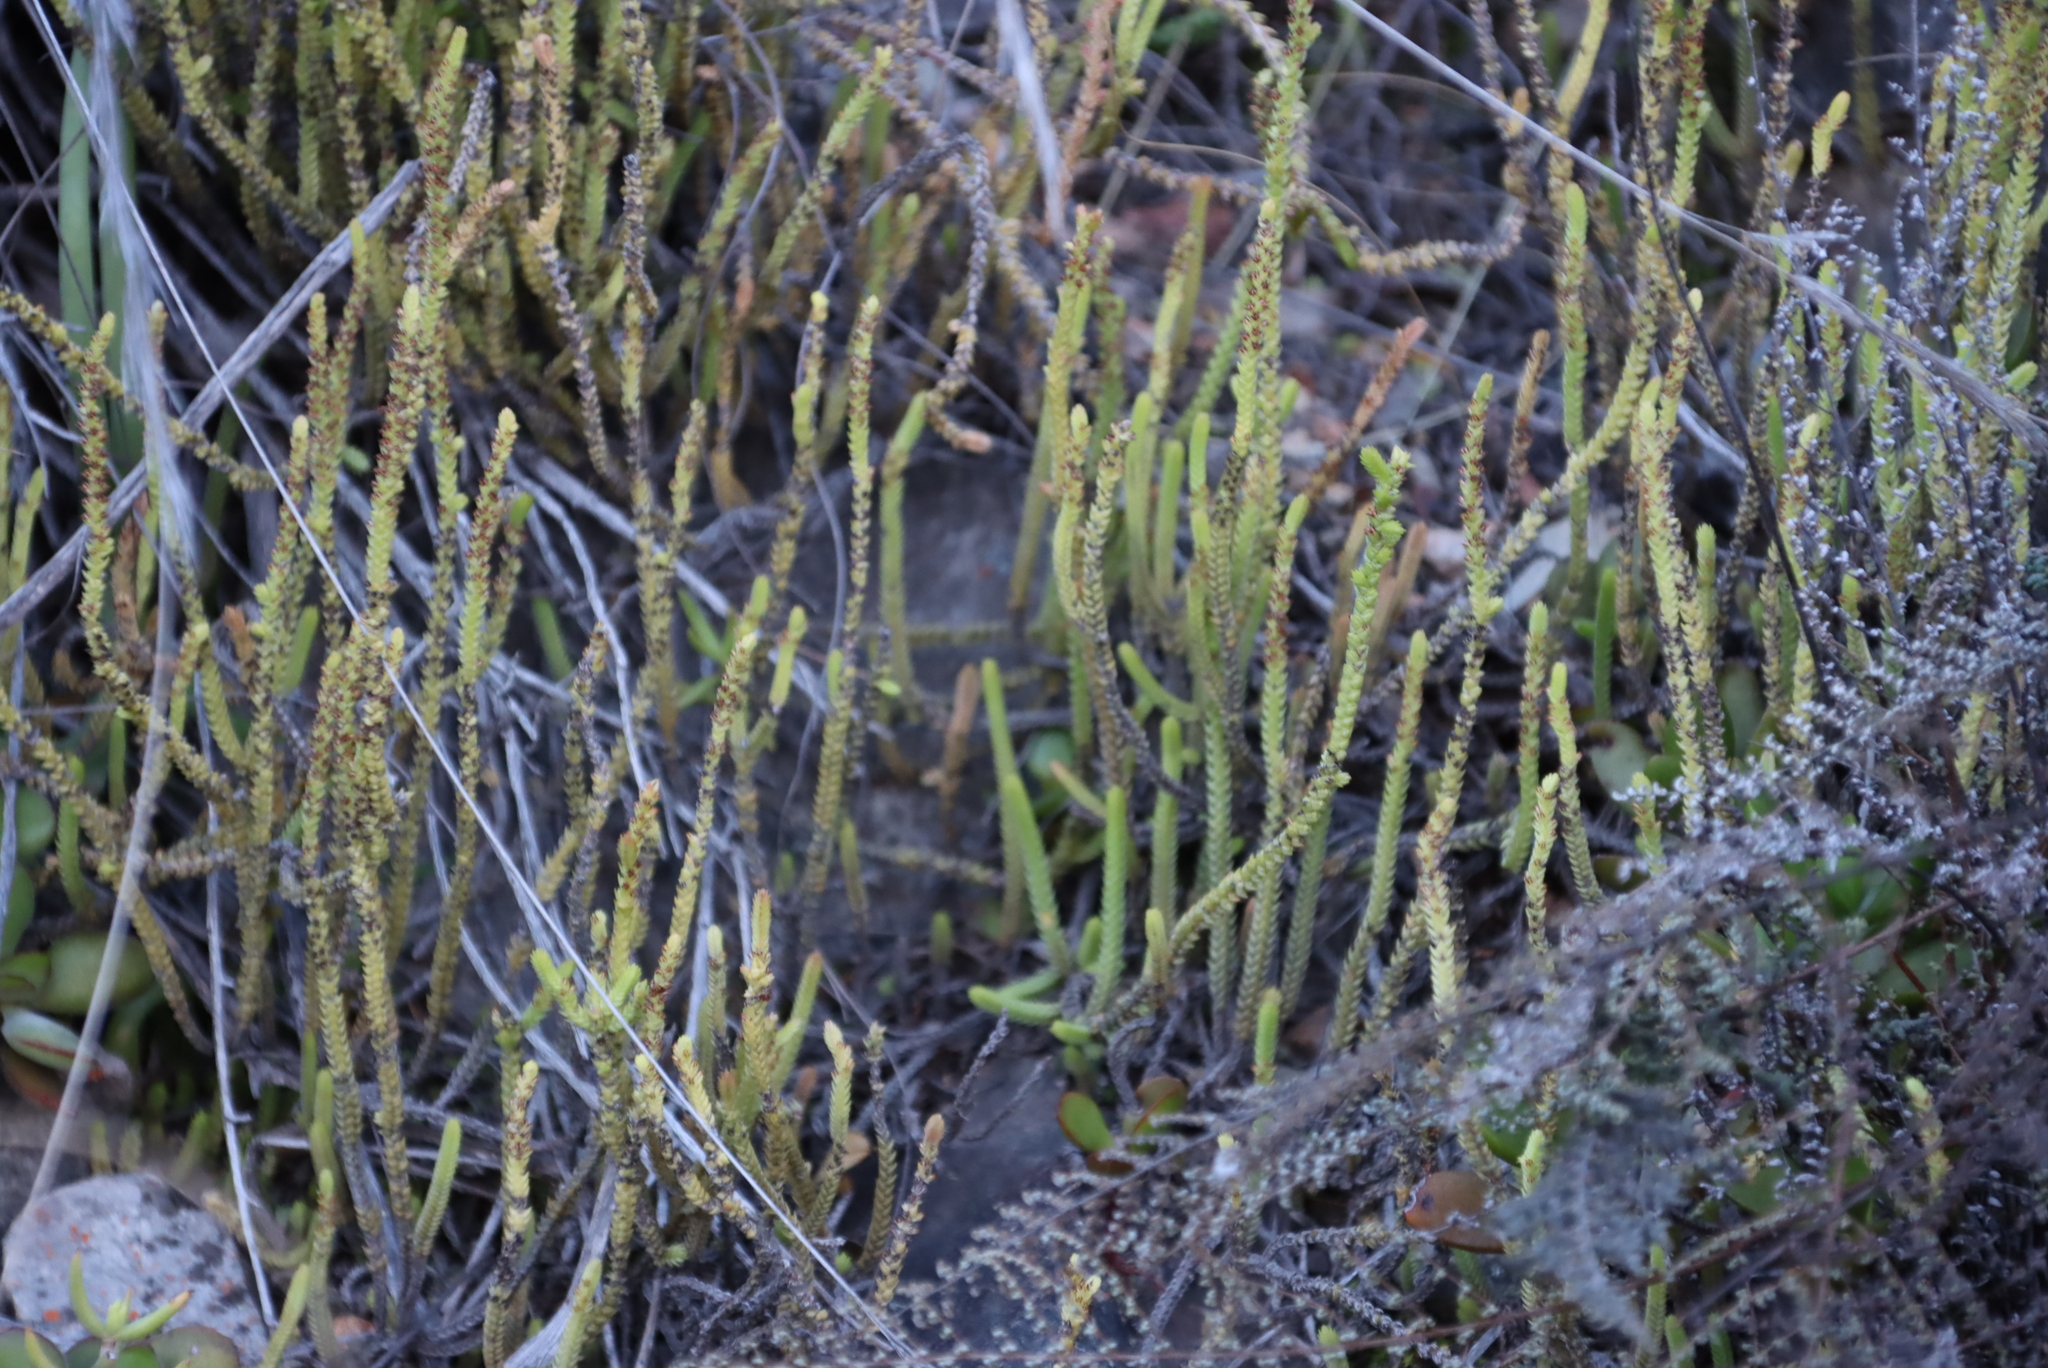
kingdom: Plantae
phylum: Tracheophyta
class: Magnoliopsida
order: Saxifragales
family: Crassulaceae
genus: Crassula
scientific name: Crassula muscosa
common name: Toy-cypress
